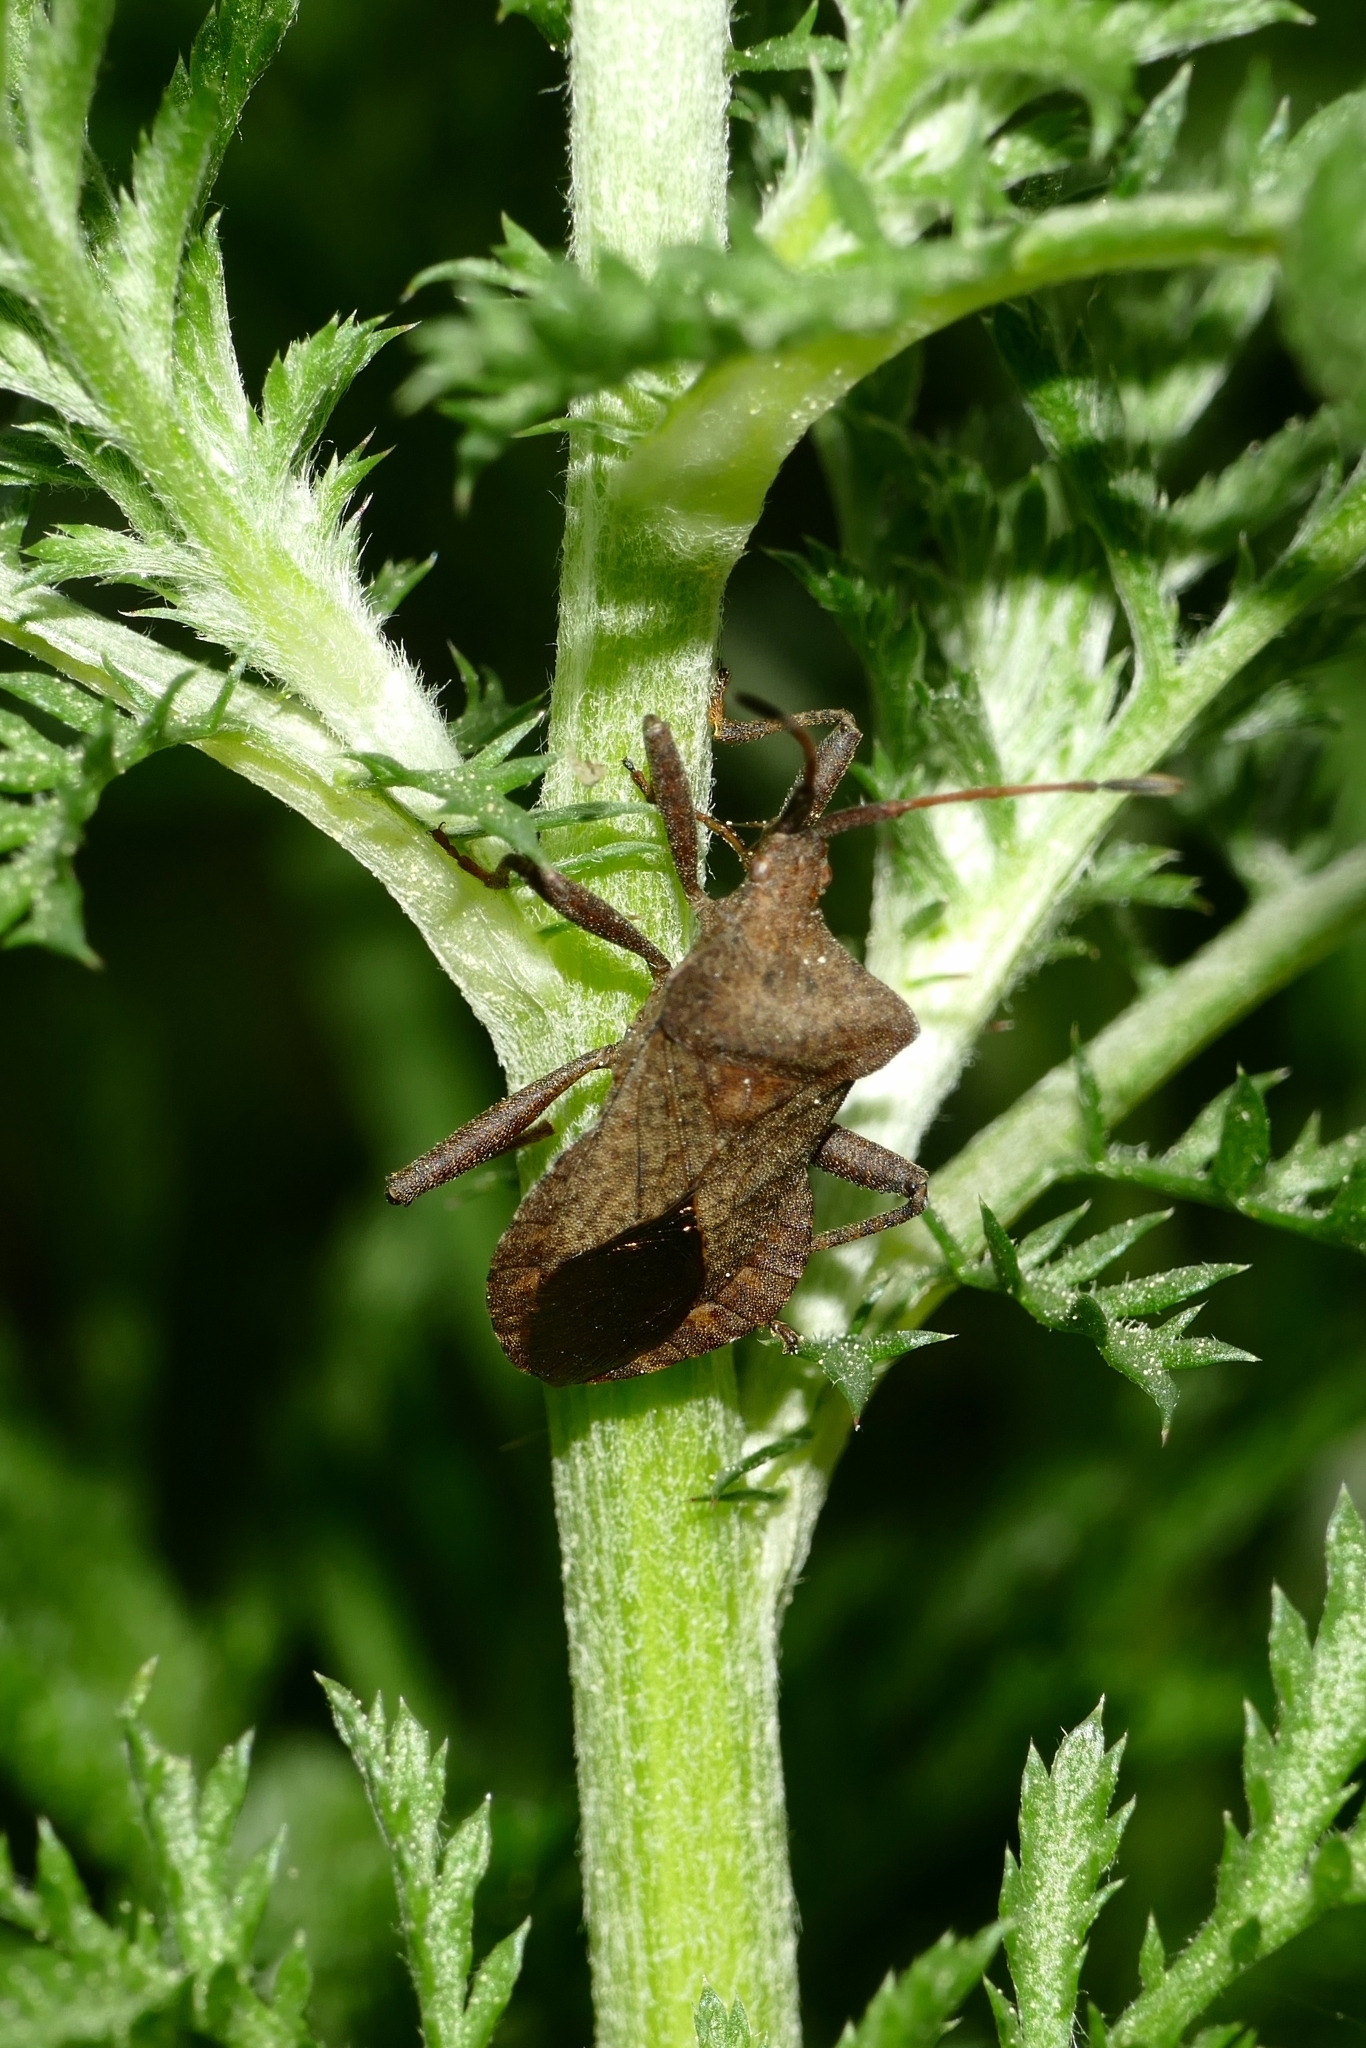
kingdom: Animalia
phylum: Arthropoda
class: Insecta
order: Hemiptera
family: Coreidae
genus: Coreus
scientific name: Coreus marginatus
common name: Dock bug
